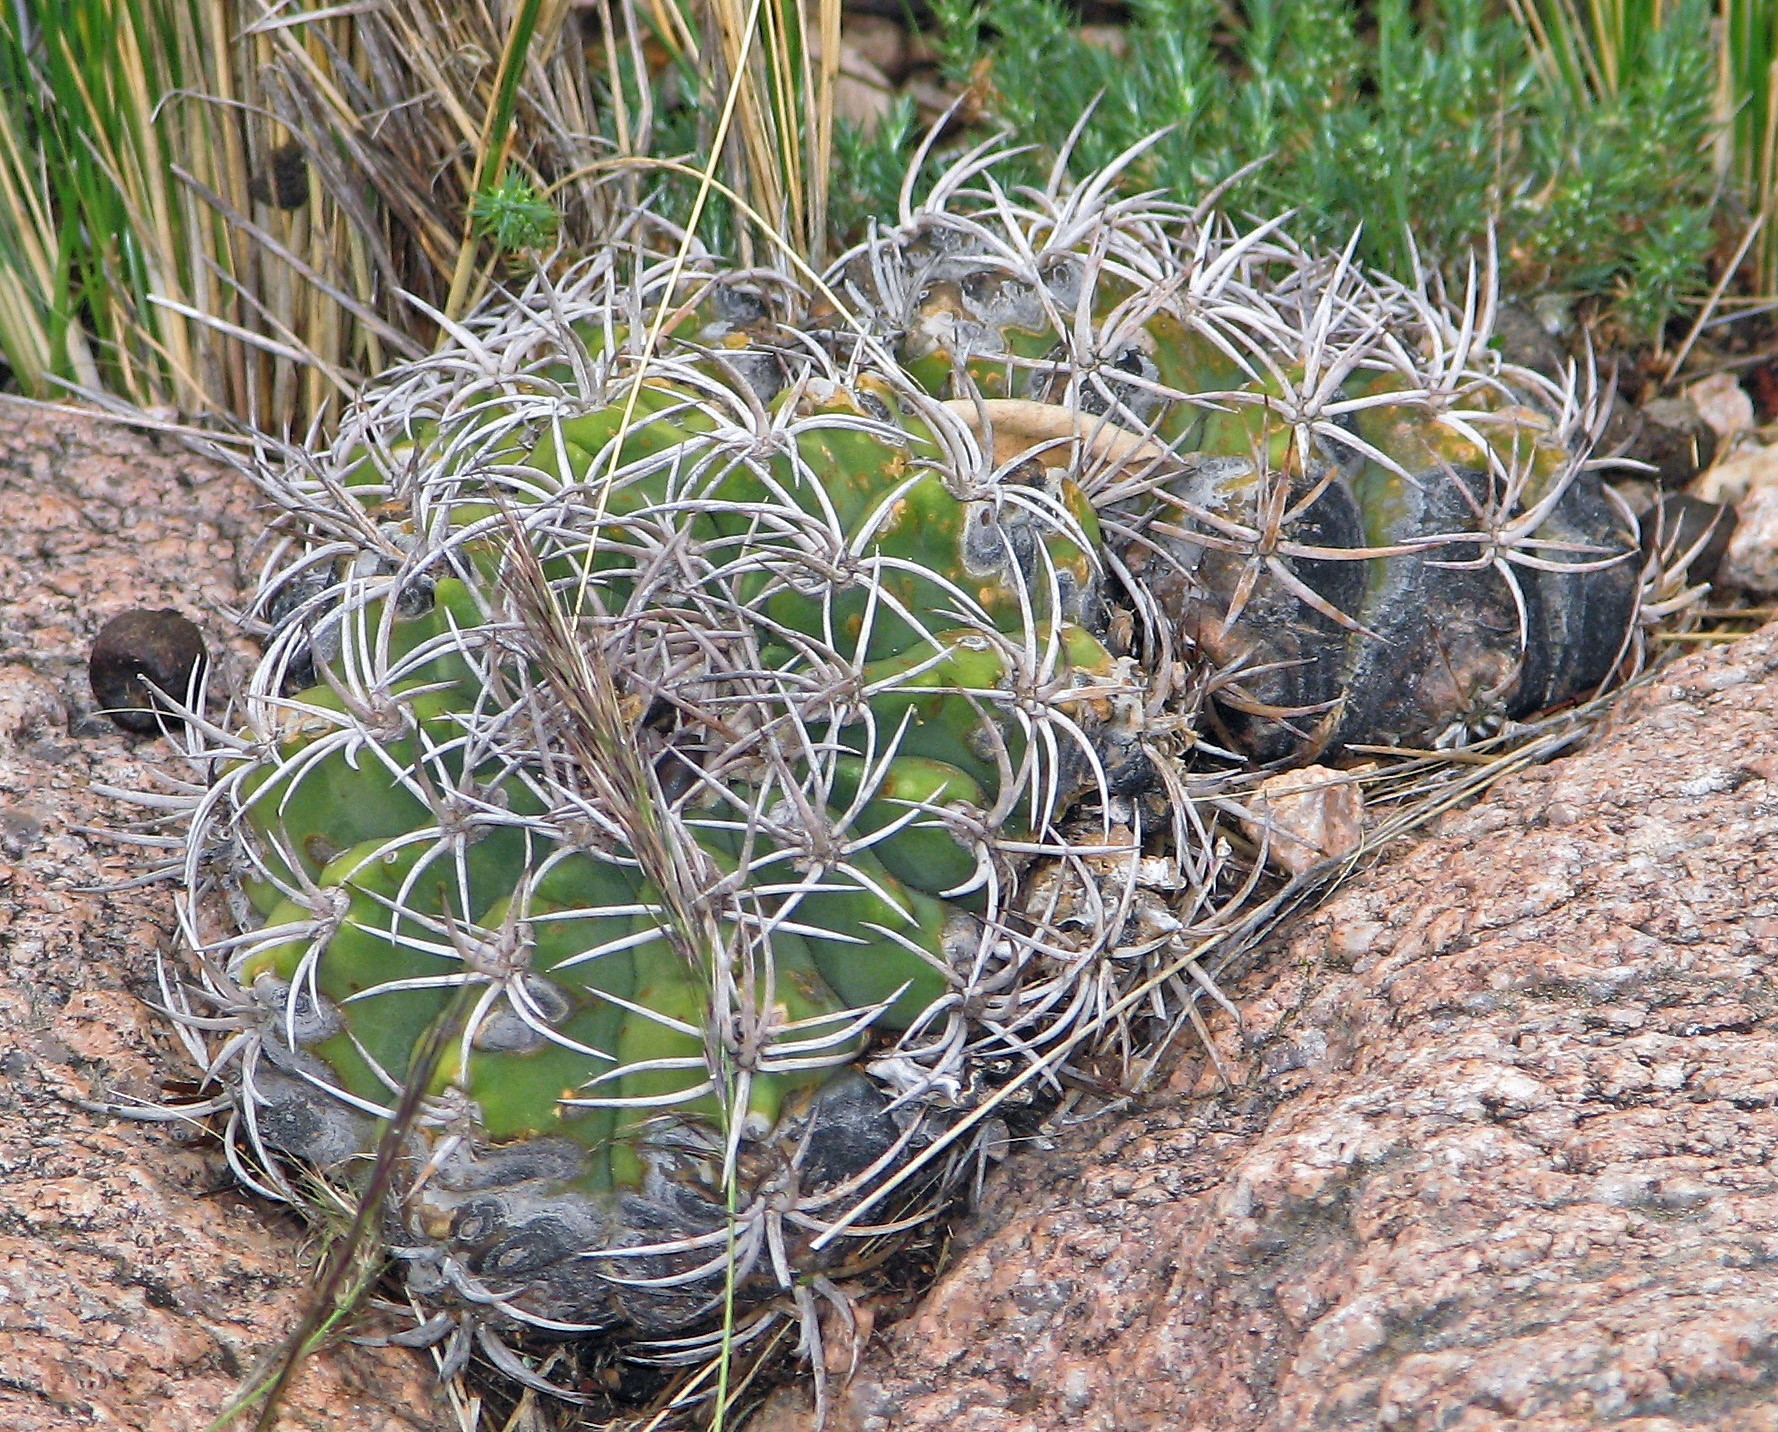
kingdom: Plantae
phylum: Tracheophyta
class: Magnoliopsida
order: Caryophyllales
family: Cactaceae
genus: Gymnocalycium
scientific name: Gymnocalycium castellanosii
